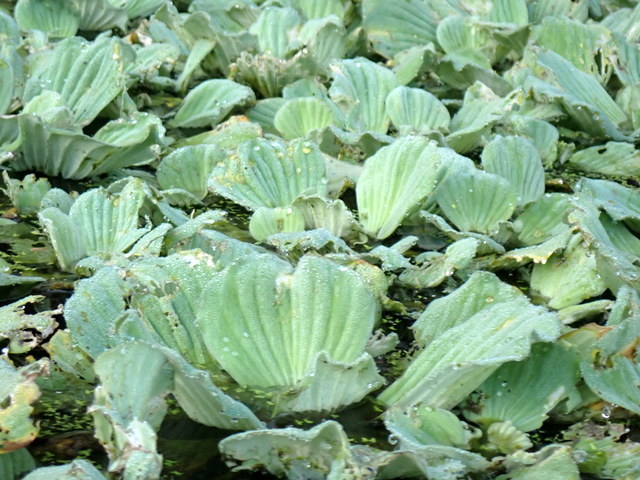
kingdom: Plantae
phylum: Tracheophyta
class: Liliopsida
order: Alismatales
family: Araceae
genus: Pistia
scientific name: Pistia stratiotes
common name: Water lettuce
